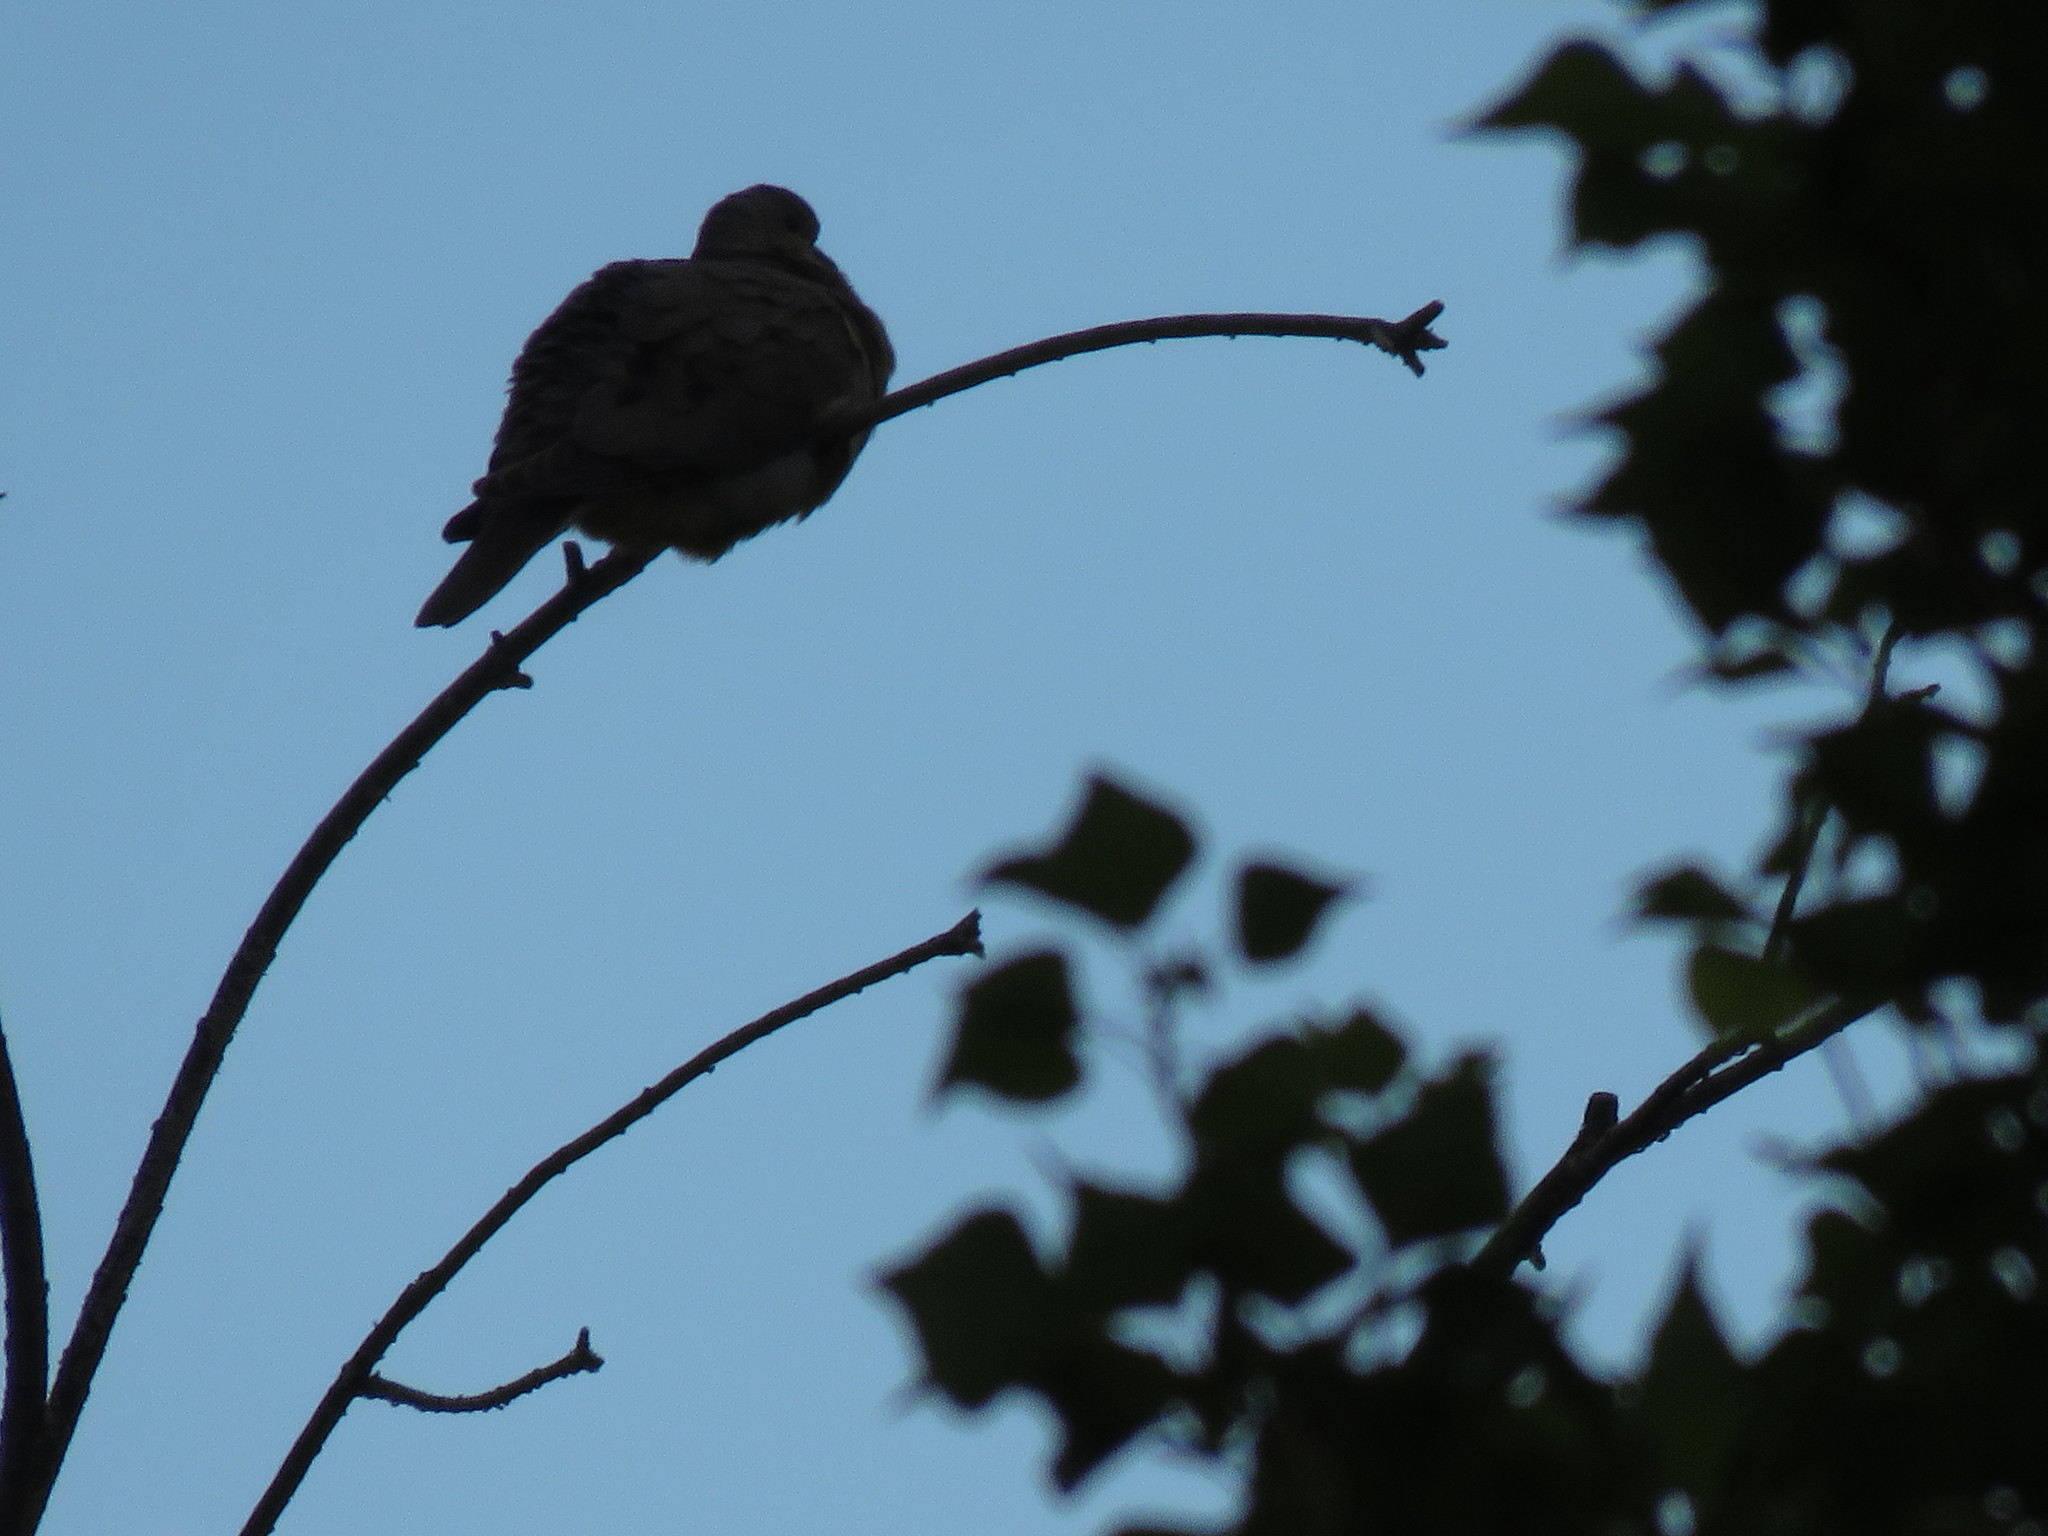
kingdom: Animalia
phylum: Chordata
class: Aves
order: Columbiformes
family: Columbidae
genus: Zenaida
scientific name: Zenaida auriculata
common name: Eared dove
